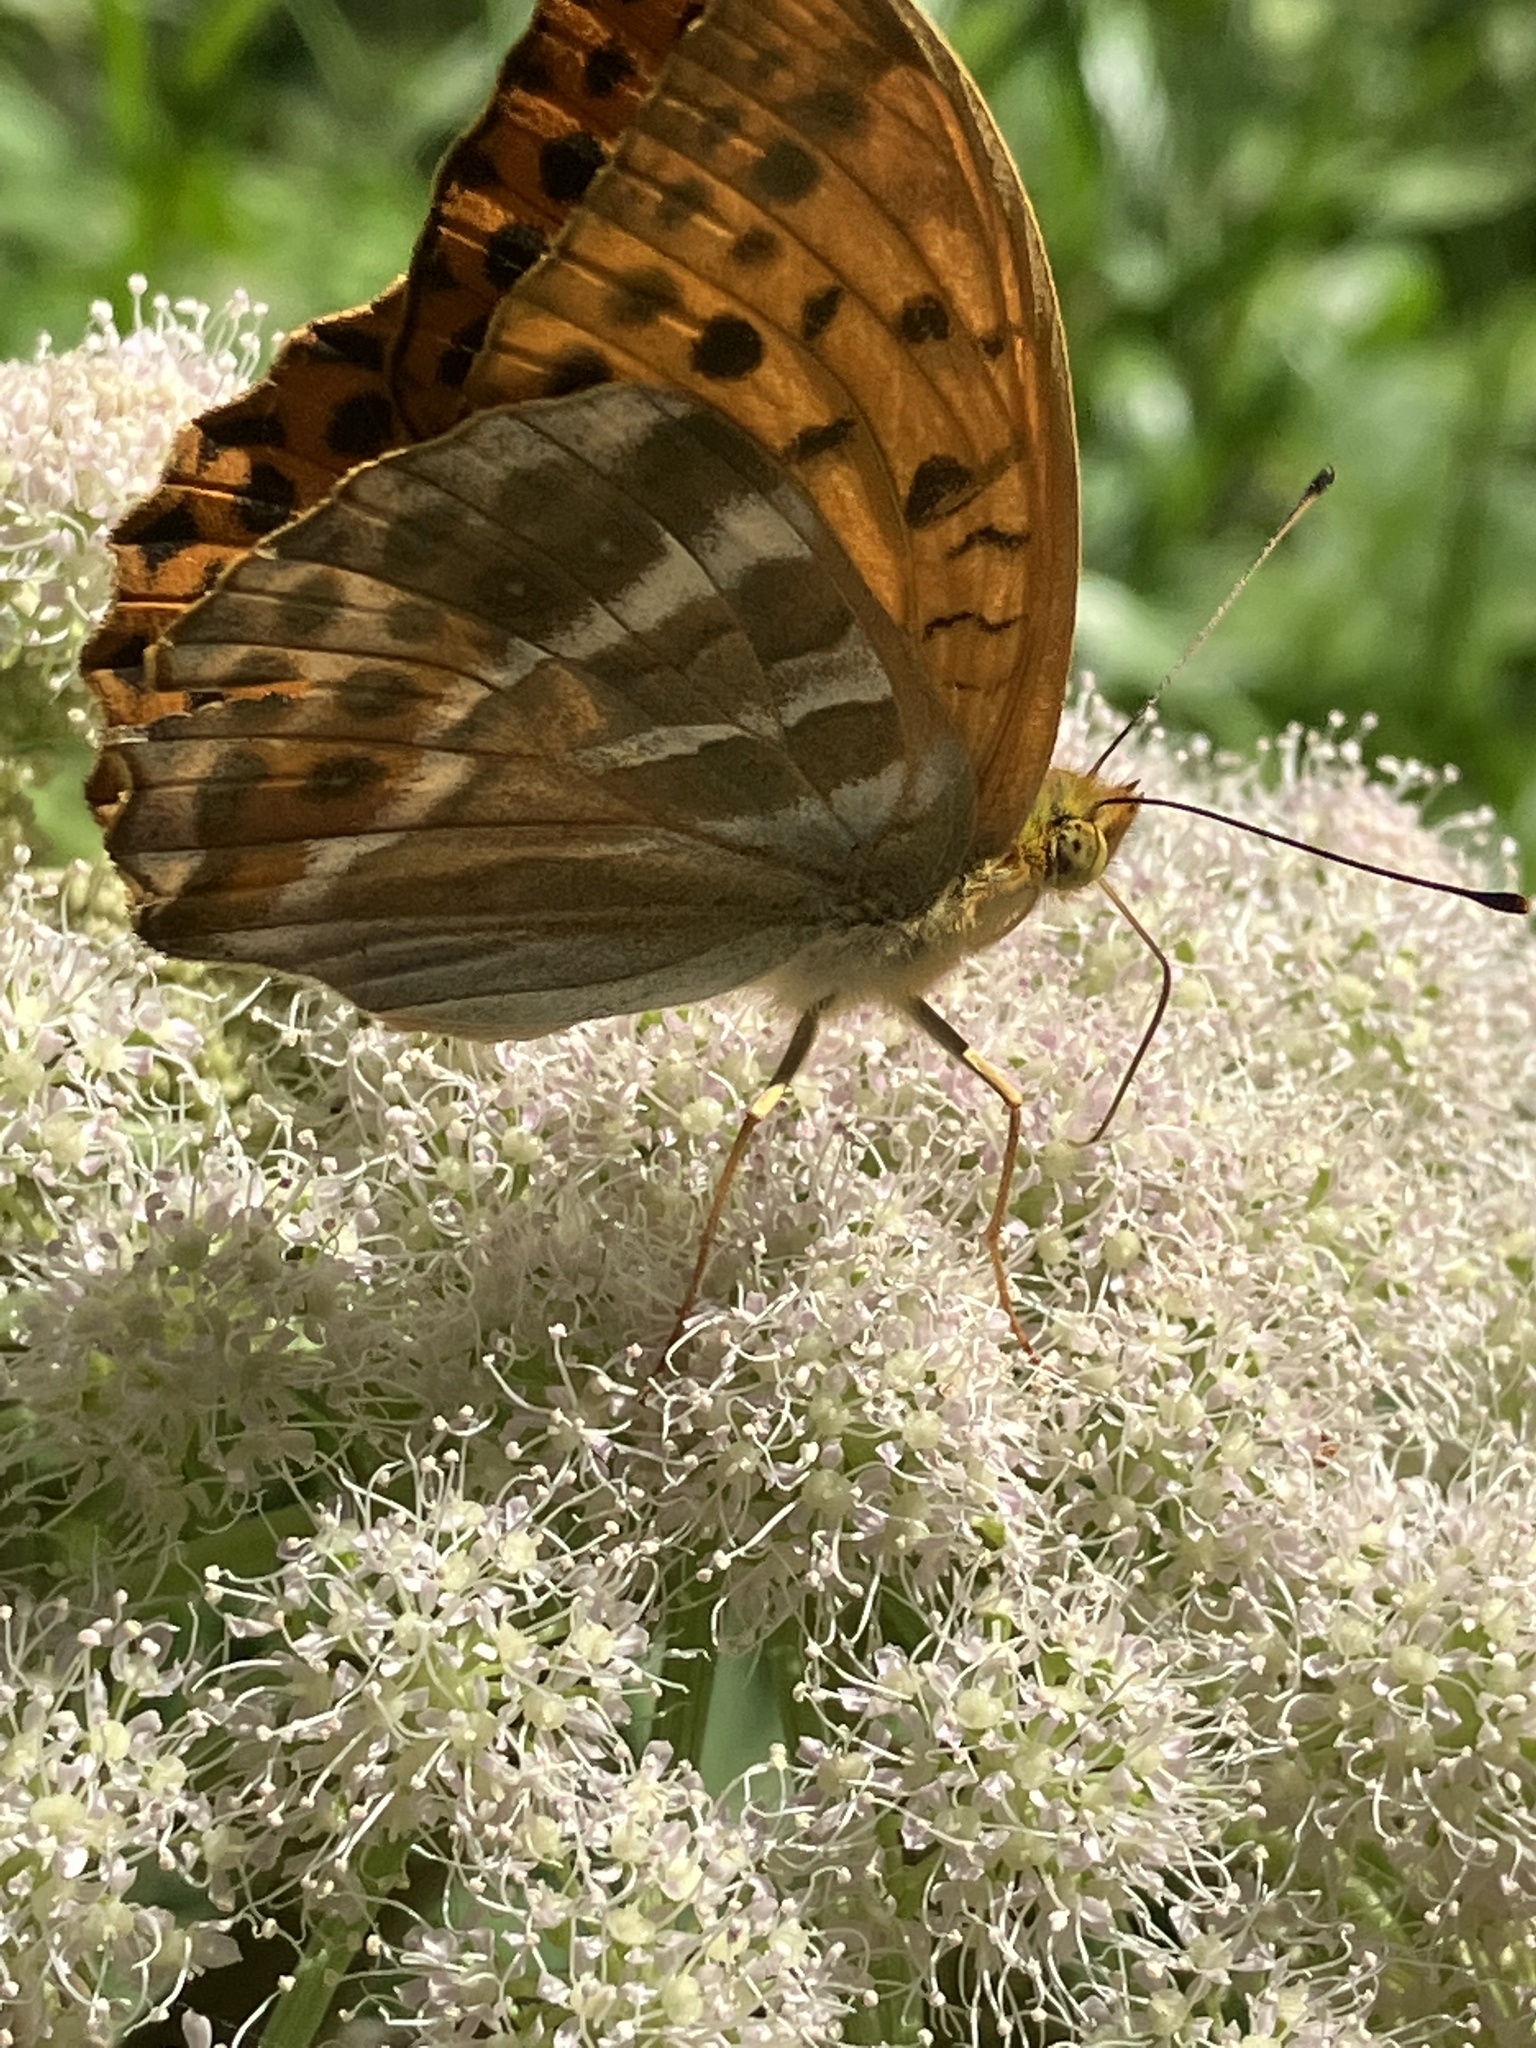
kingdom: Animalia
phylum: Arthropoda
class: Insecta
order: Lepidoptera
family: Nymphalidae
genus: Argynnis
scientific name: Argynnis paphia
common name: Silver-washed fritillary
